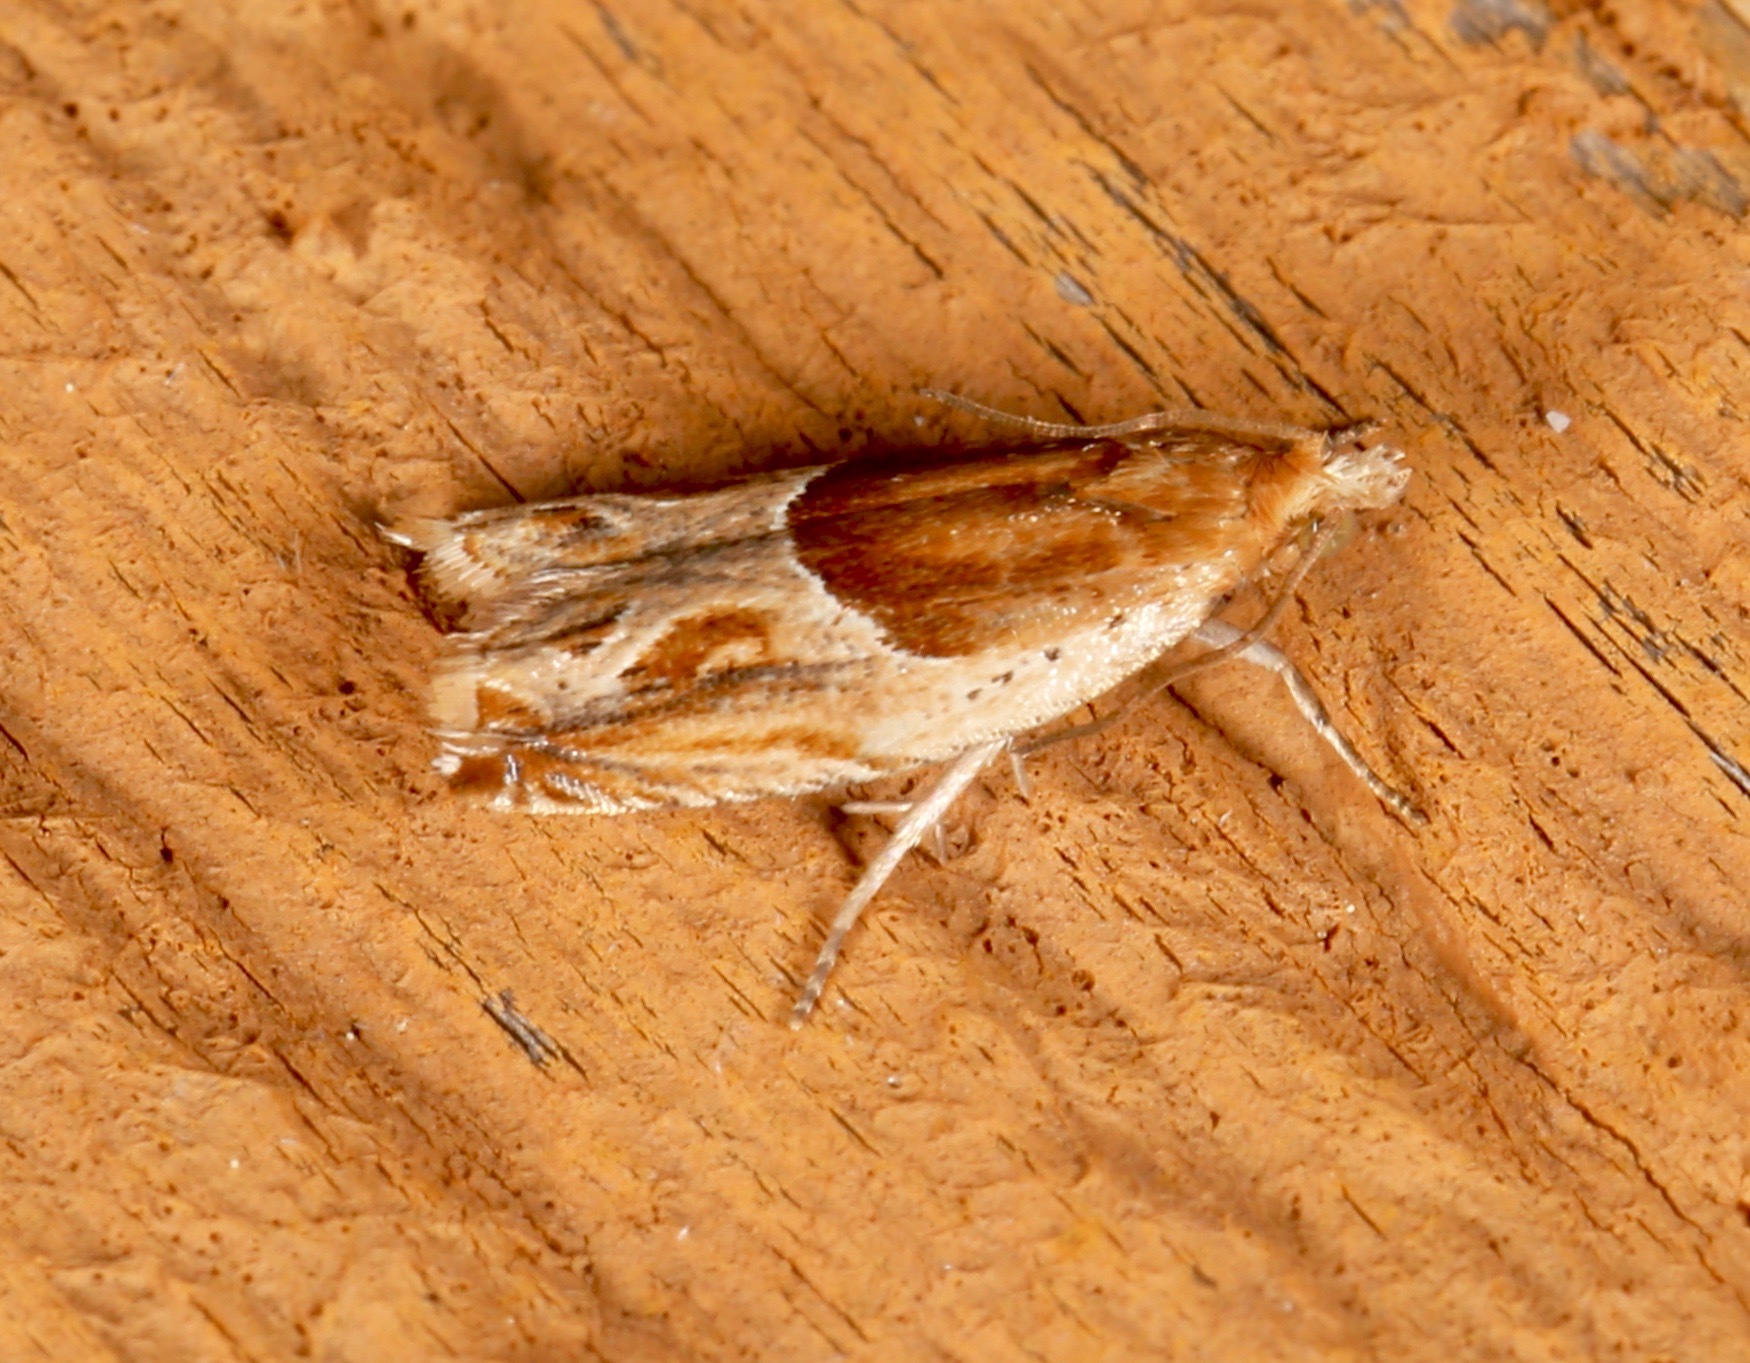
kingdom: Animalia
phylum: Arthropoda
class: Insecta
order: Lepidoptera
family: Tortricidae
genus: Ancylis
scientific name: Ancylis comptana
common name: Little roller
